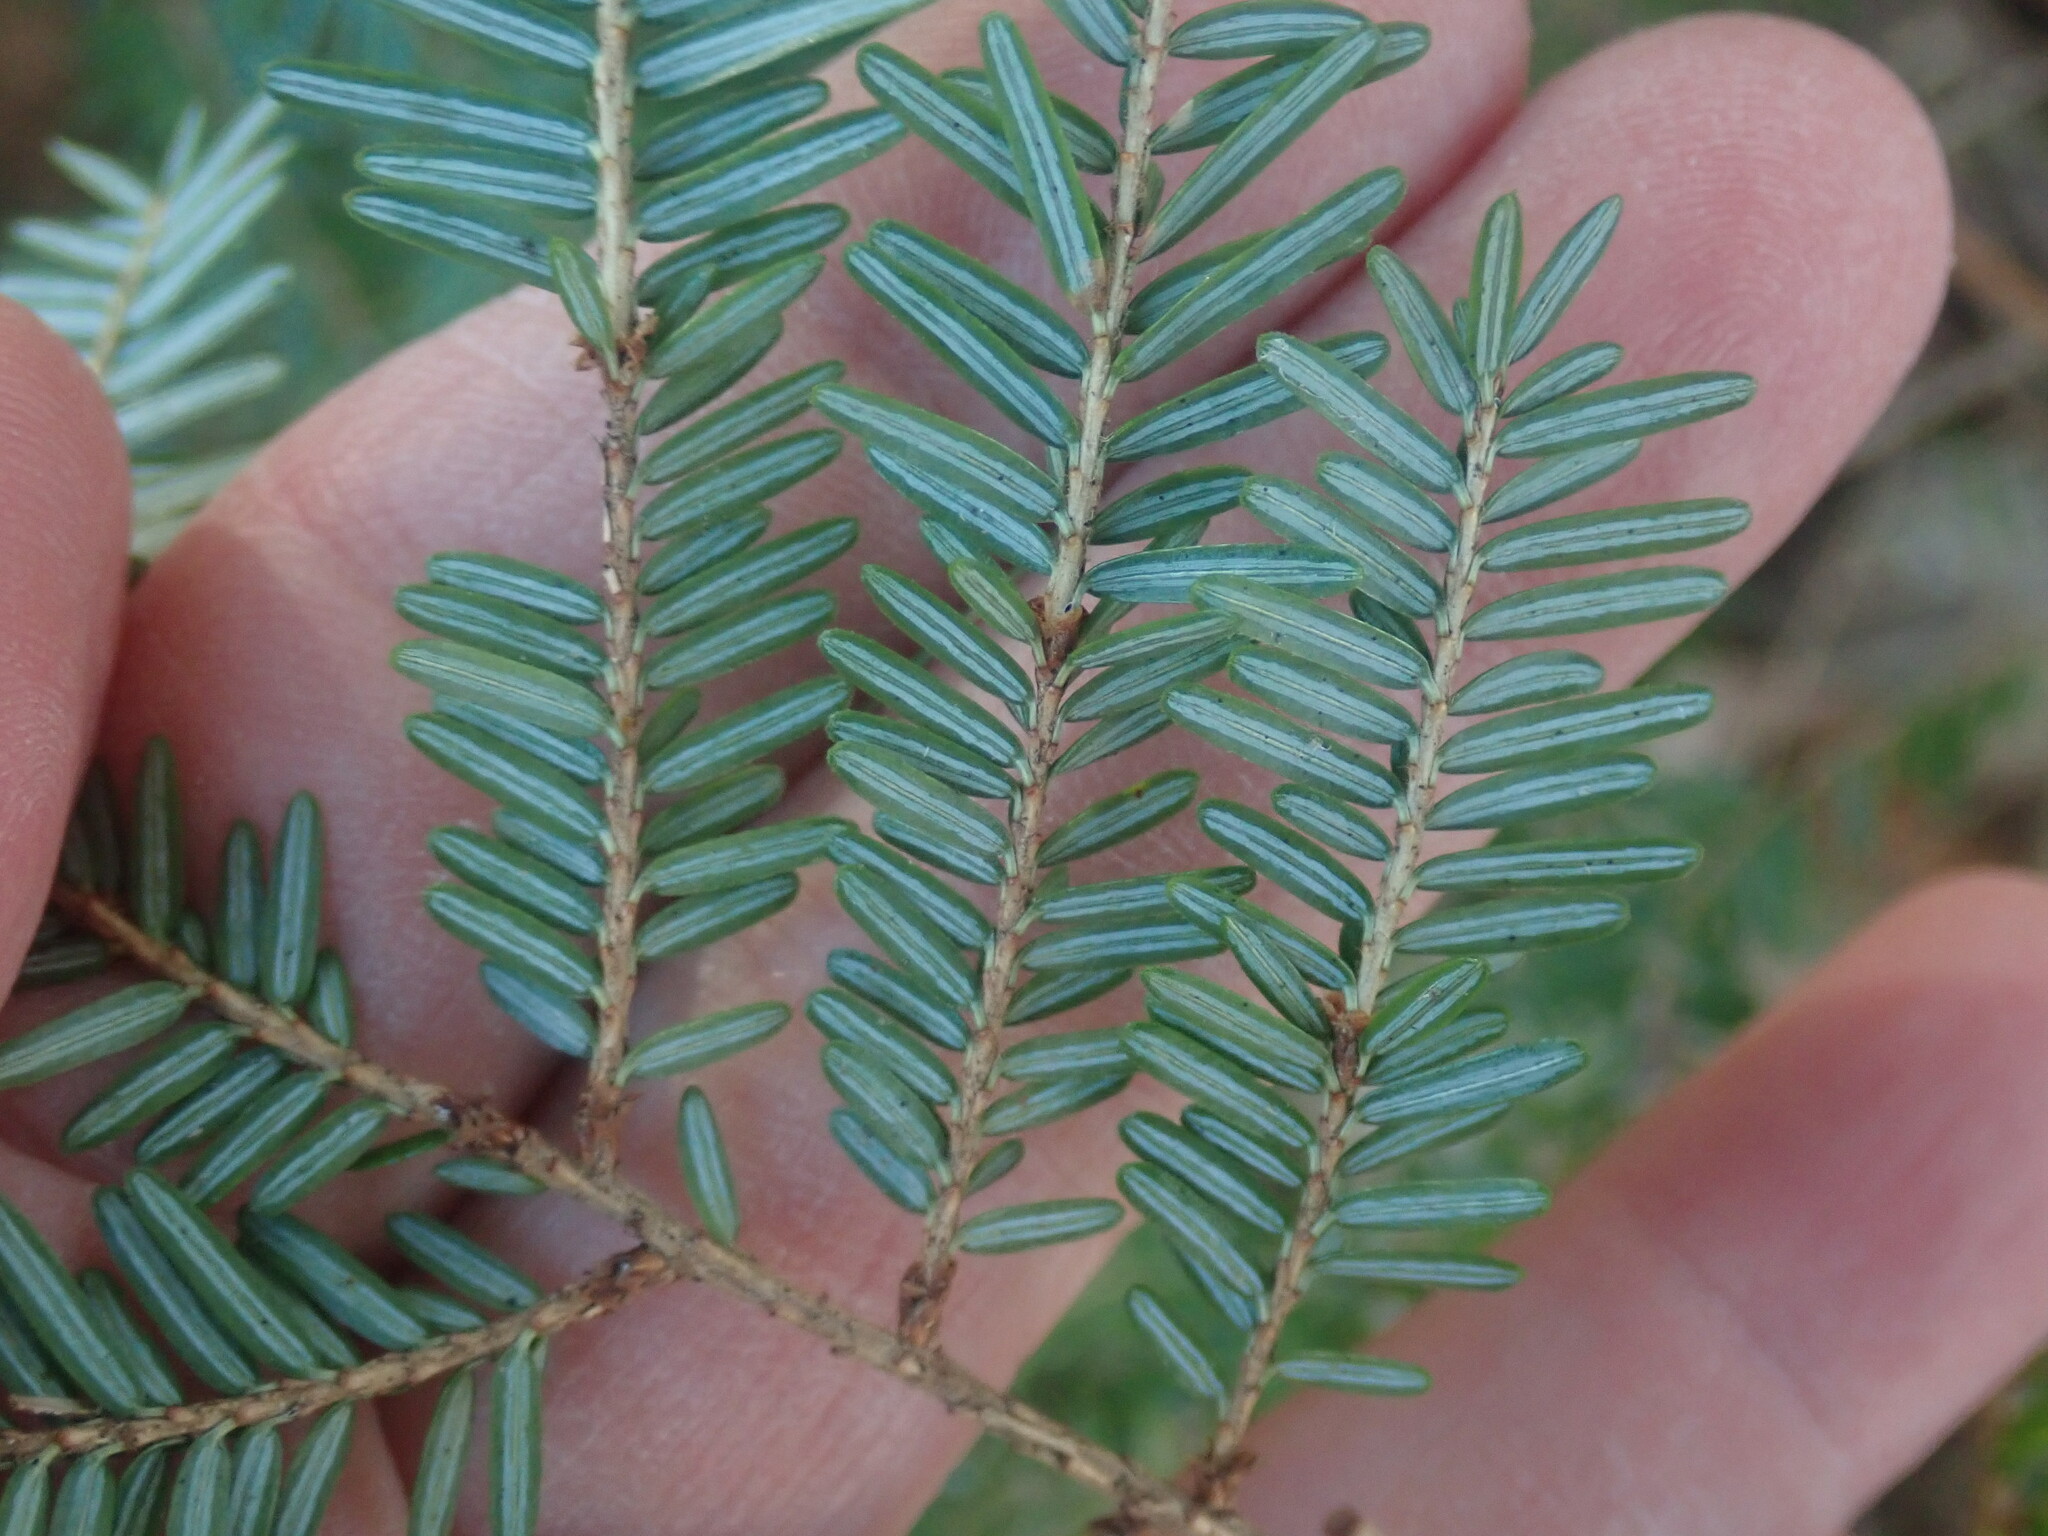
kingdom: Plantae
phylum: Tracheophyta
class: Pinopsida
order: Pinales
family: Pinaceae
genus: Tsuga
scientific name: Tsuga canadensis
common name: Eastern hemlock
